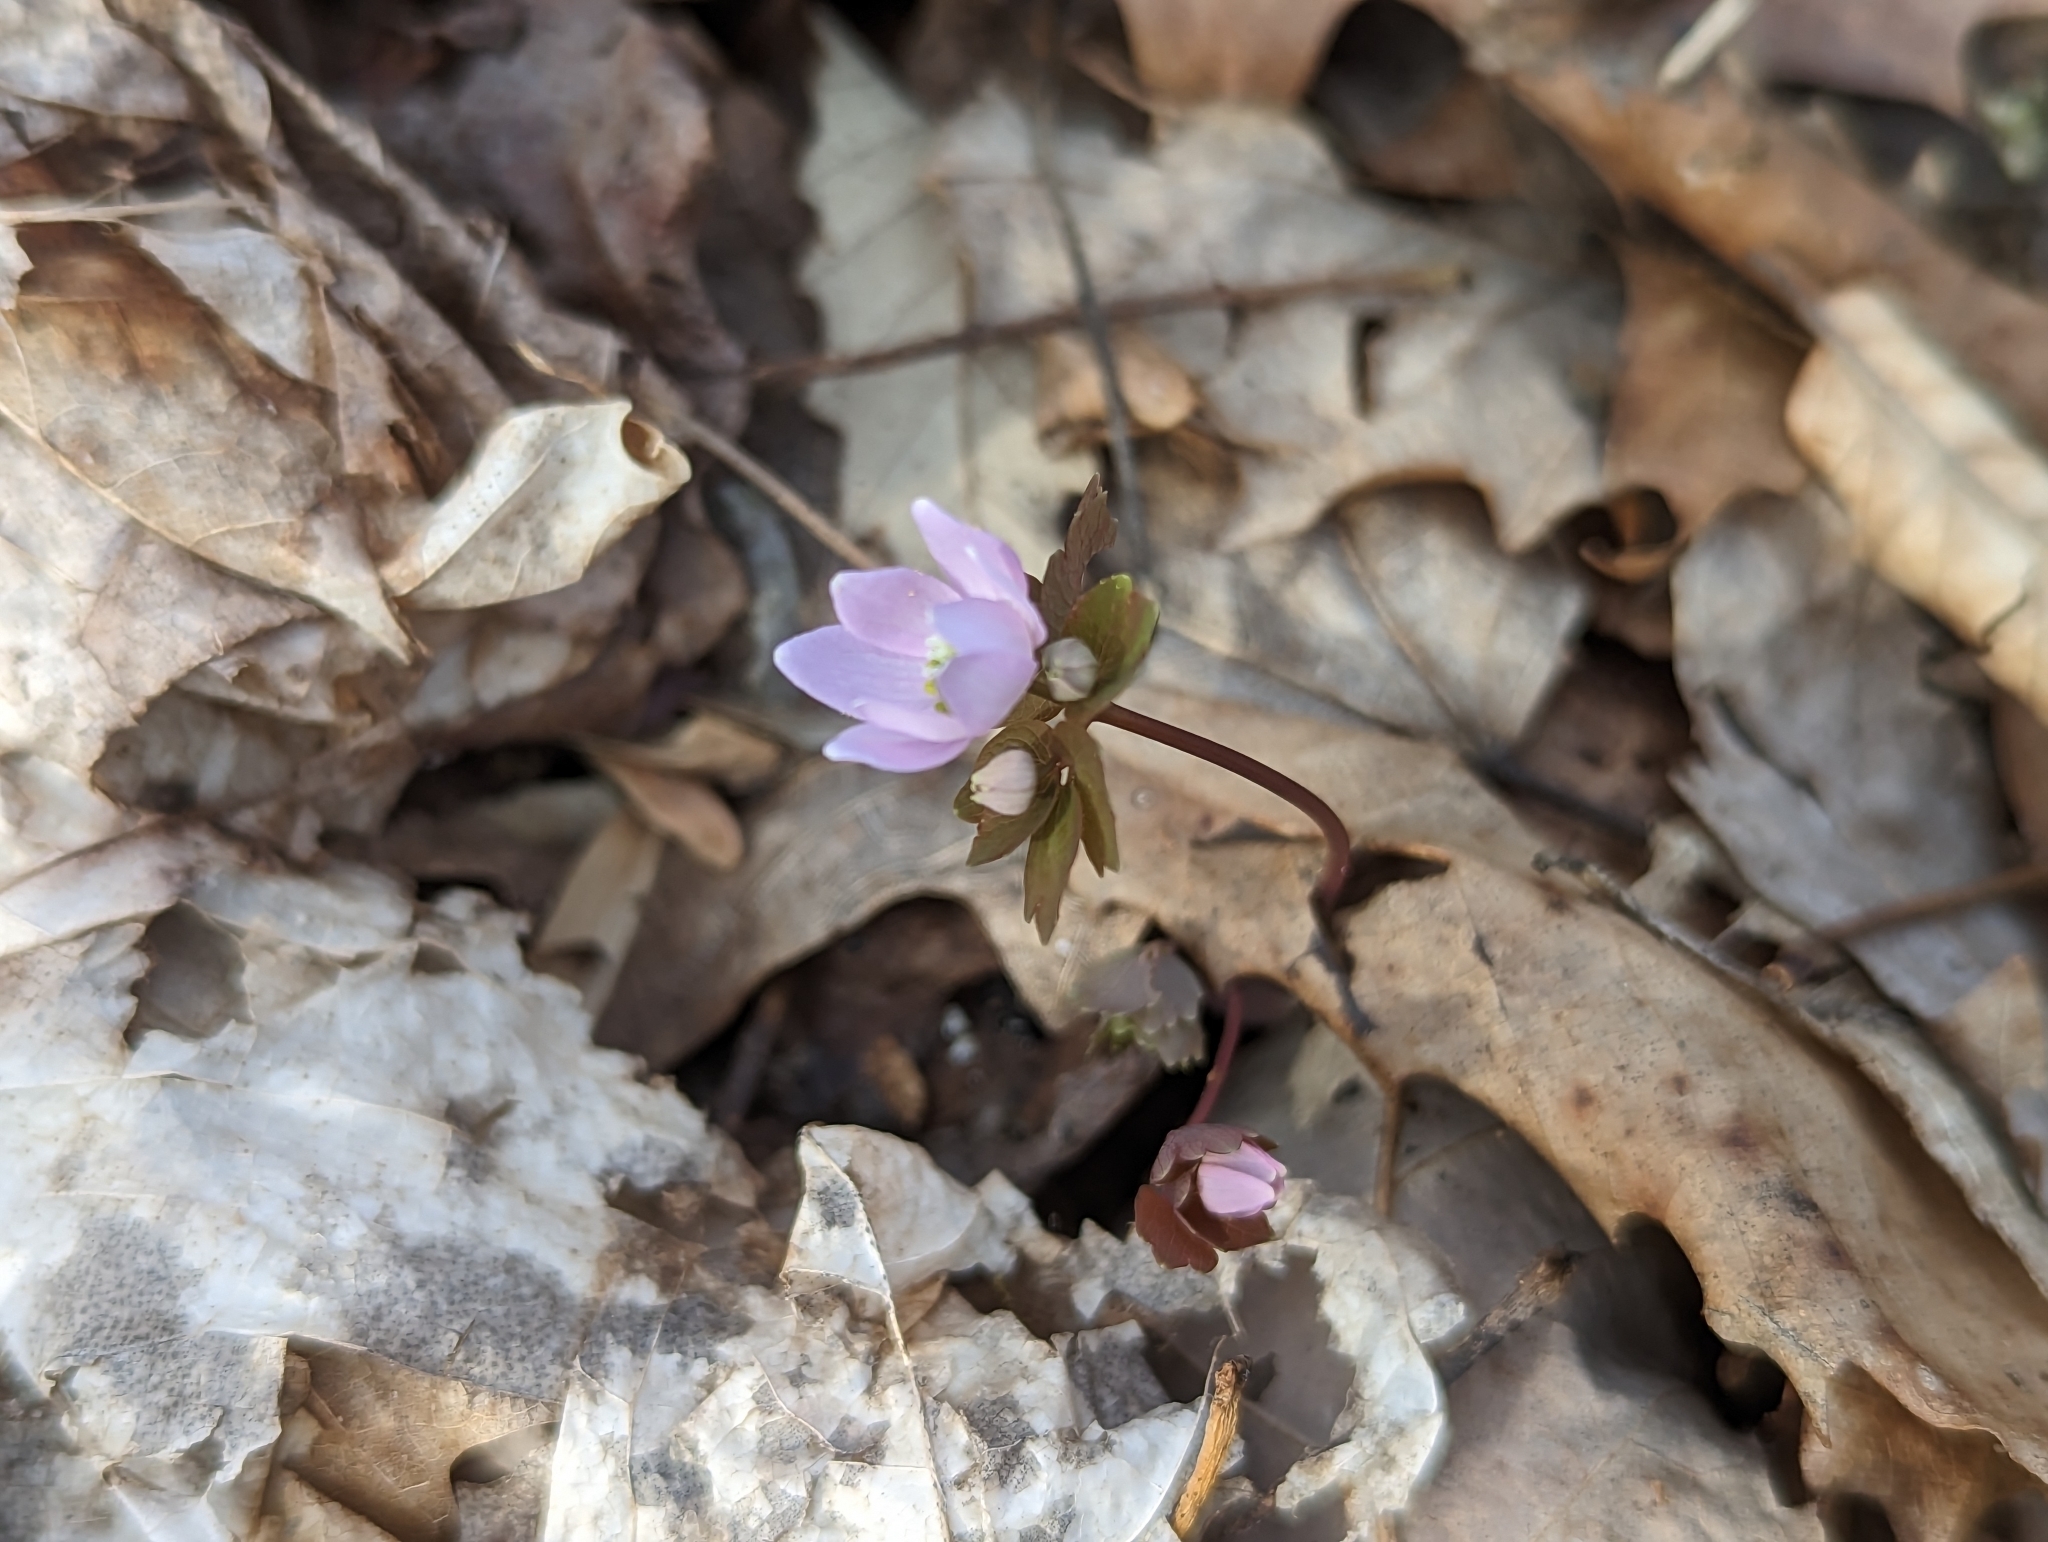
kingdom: Plantae
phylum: Tracheophyta
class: Magnoliopsida
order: Ranunculales
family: Ranunculaceae
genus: Thalictrum
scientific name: Thalictrum thalictroides
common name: Rue-anemone
